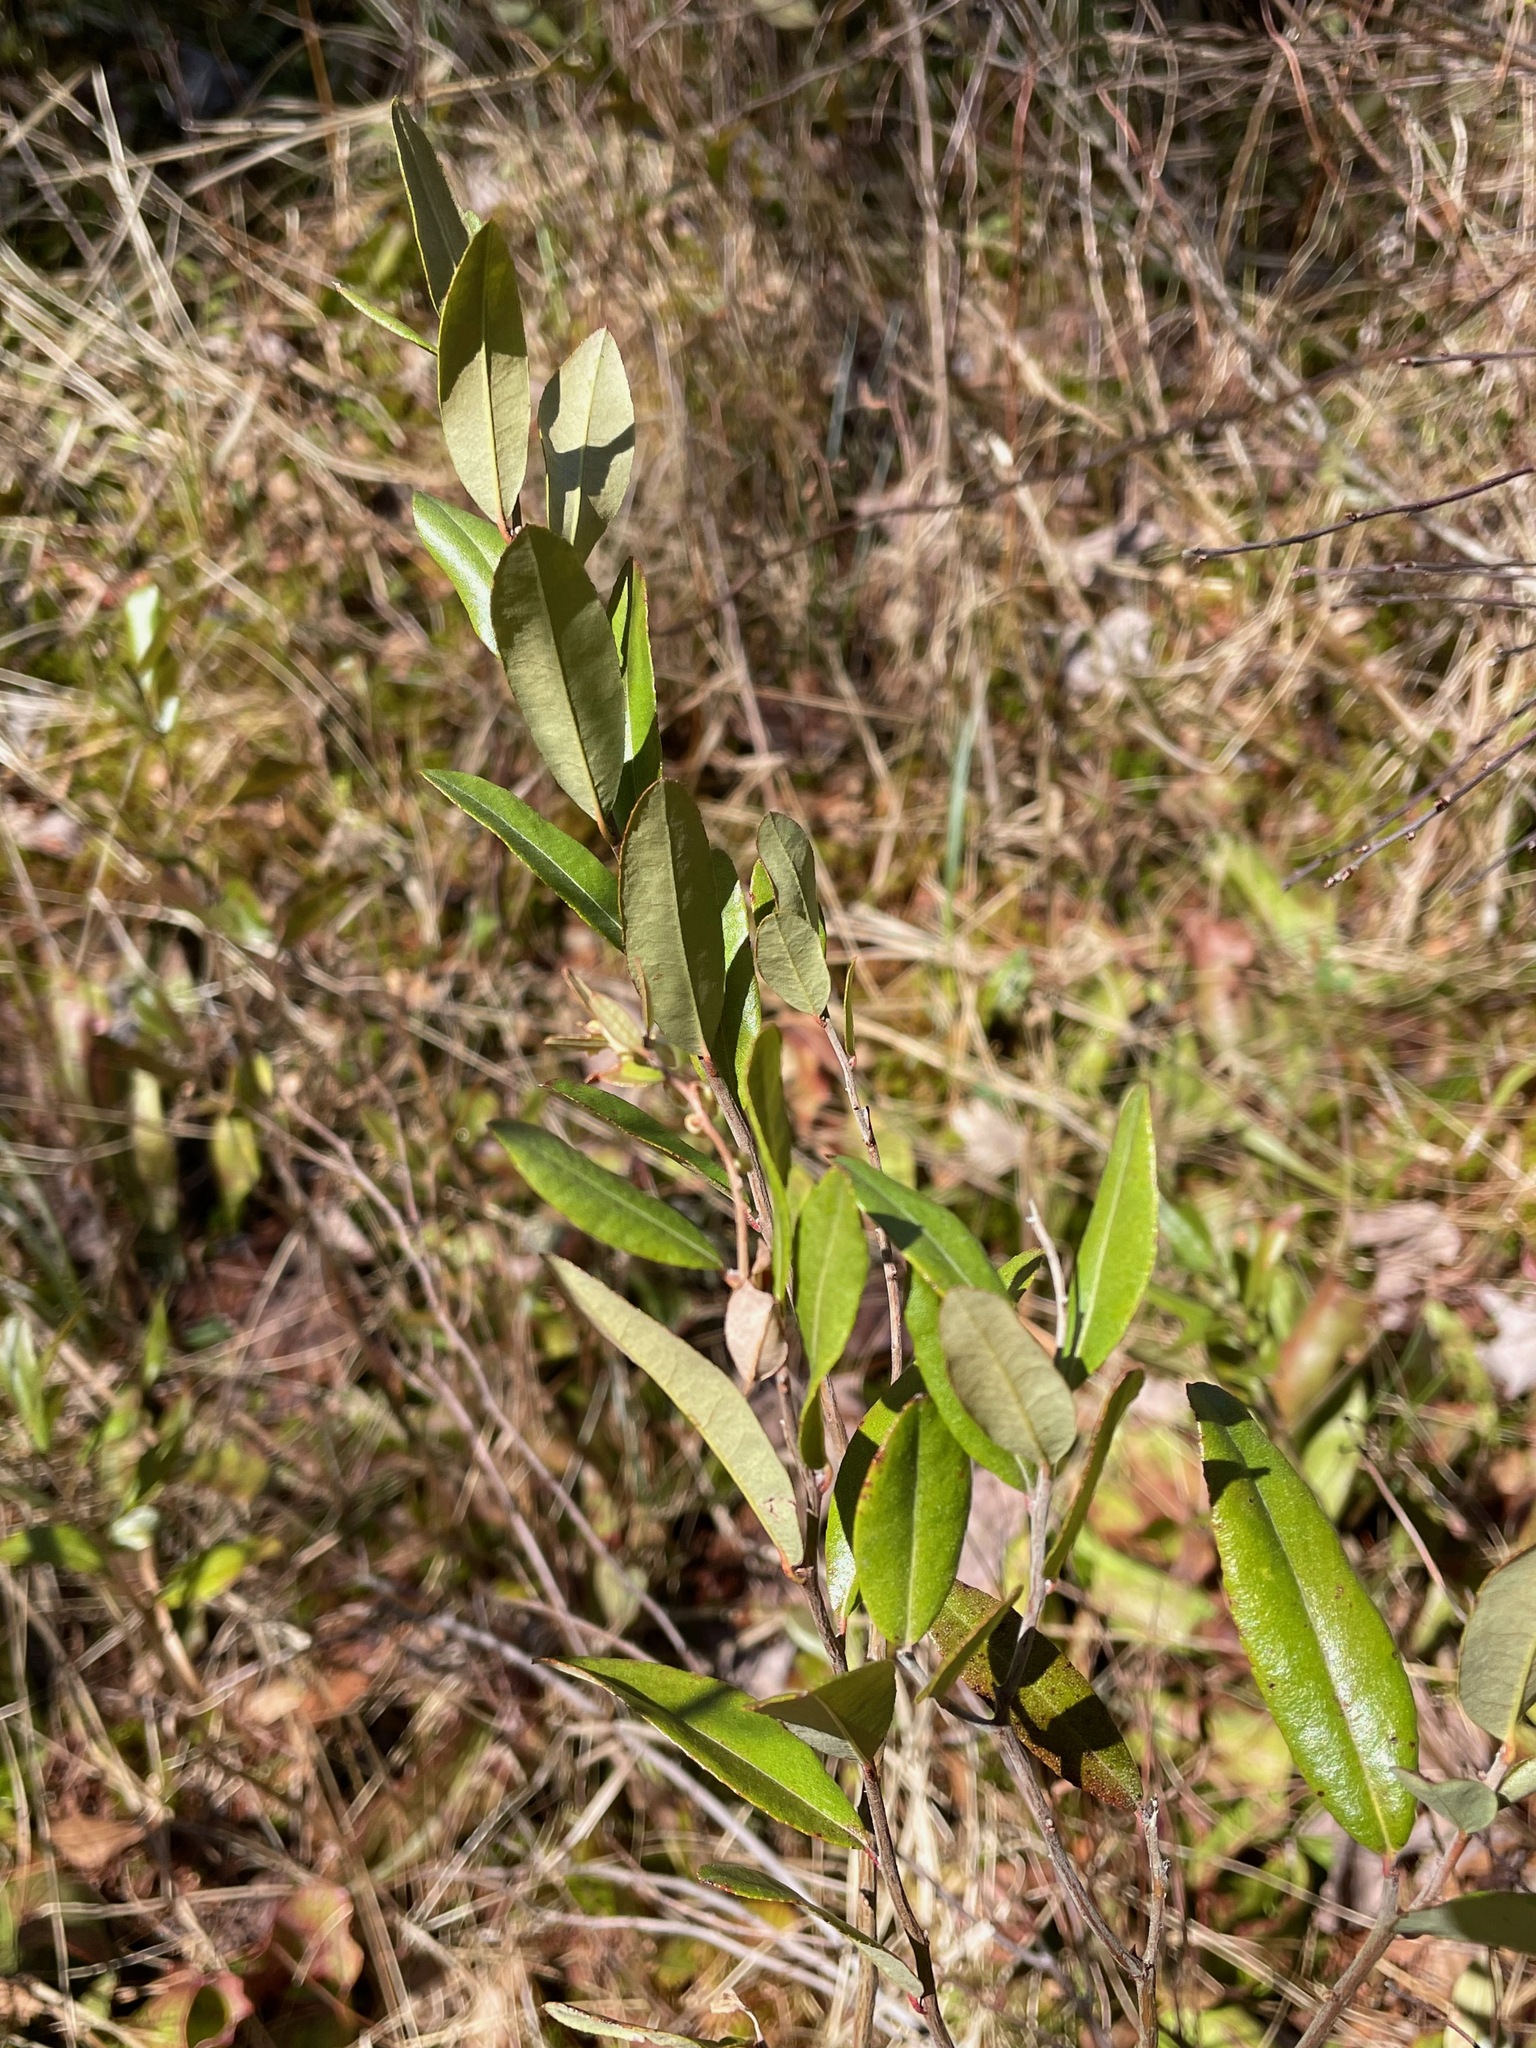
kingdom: Plantae
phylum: Tracheophyta
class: Magnoliopsida
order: Ericales
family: Ericaceae
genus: Chamaedaphne
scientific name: Chamaedaphne calyculata
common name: Leatherleaf
